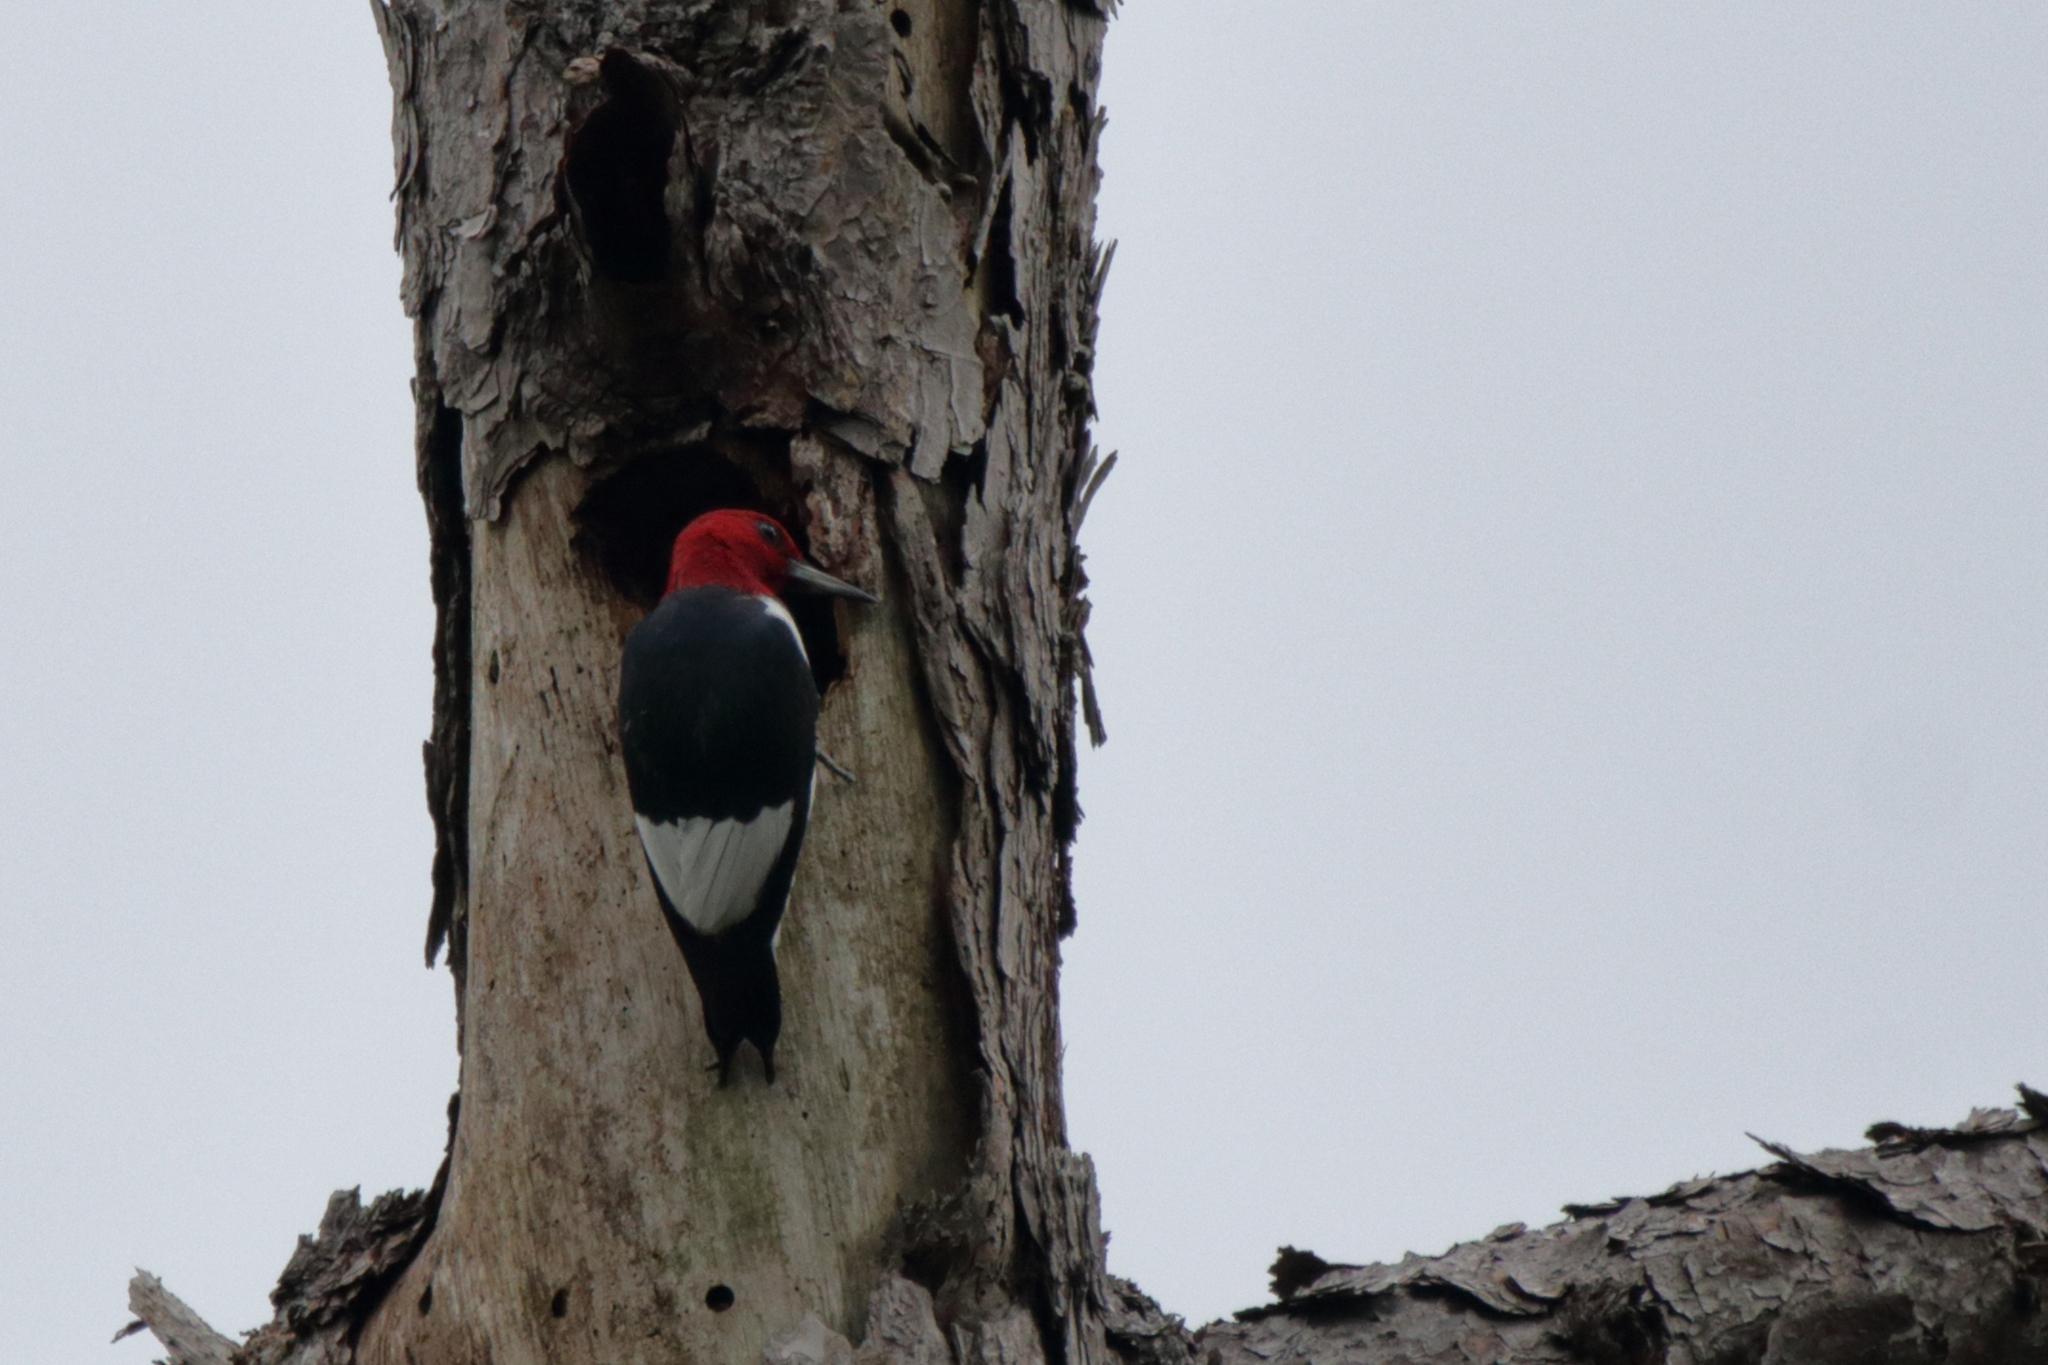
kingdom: Animalia
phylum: Chordata
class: Aves
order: Piciformes
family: Picidae
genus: Melanerpes
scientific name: Melanerpes erythrocephalus
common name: Red-headed woodpecker
